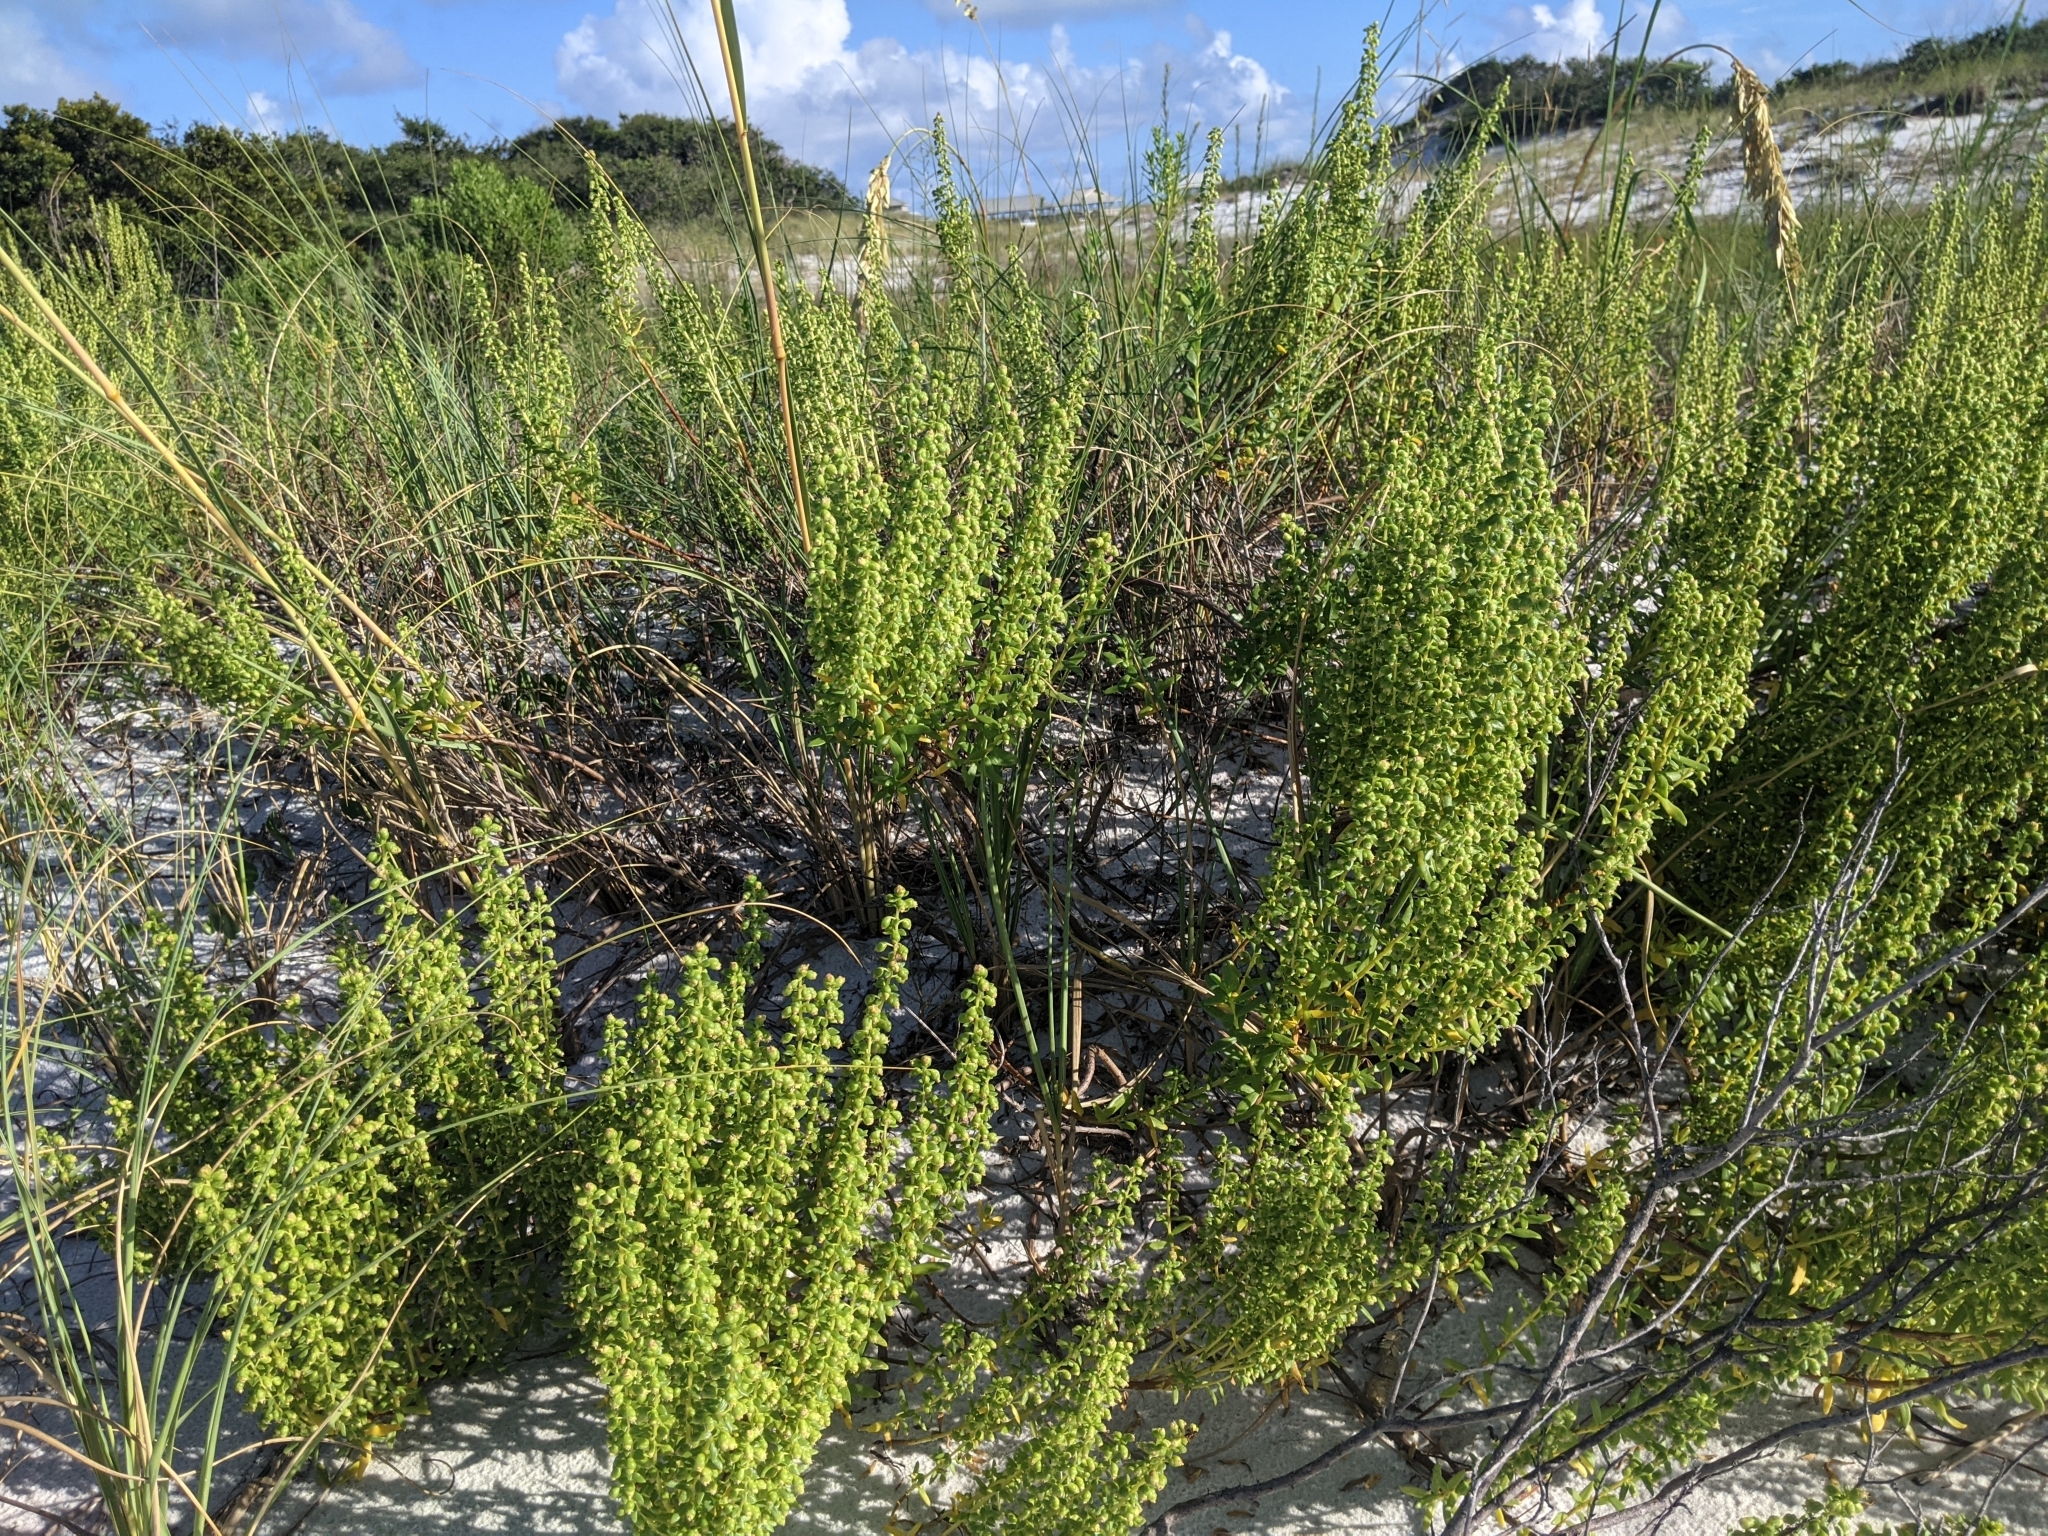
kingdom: Plantae
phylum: Tracheophyta
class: Magnoliopsida
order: Asterales
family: Asteraceae
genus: Iva
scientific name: Iva imbricata
